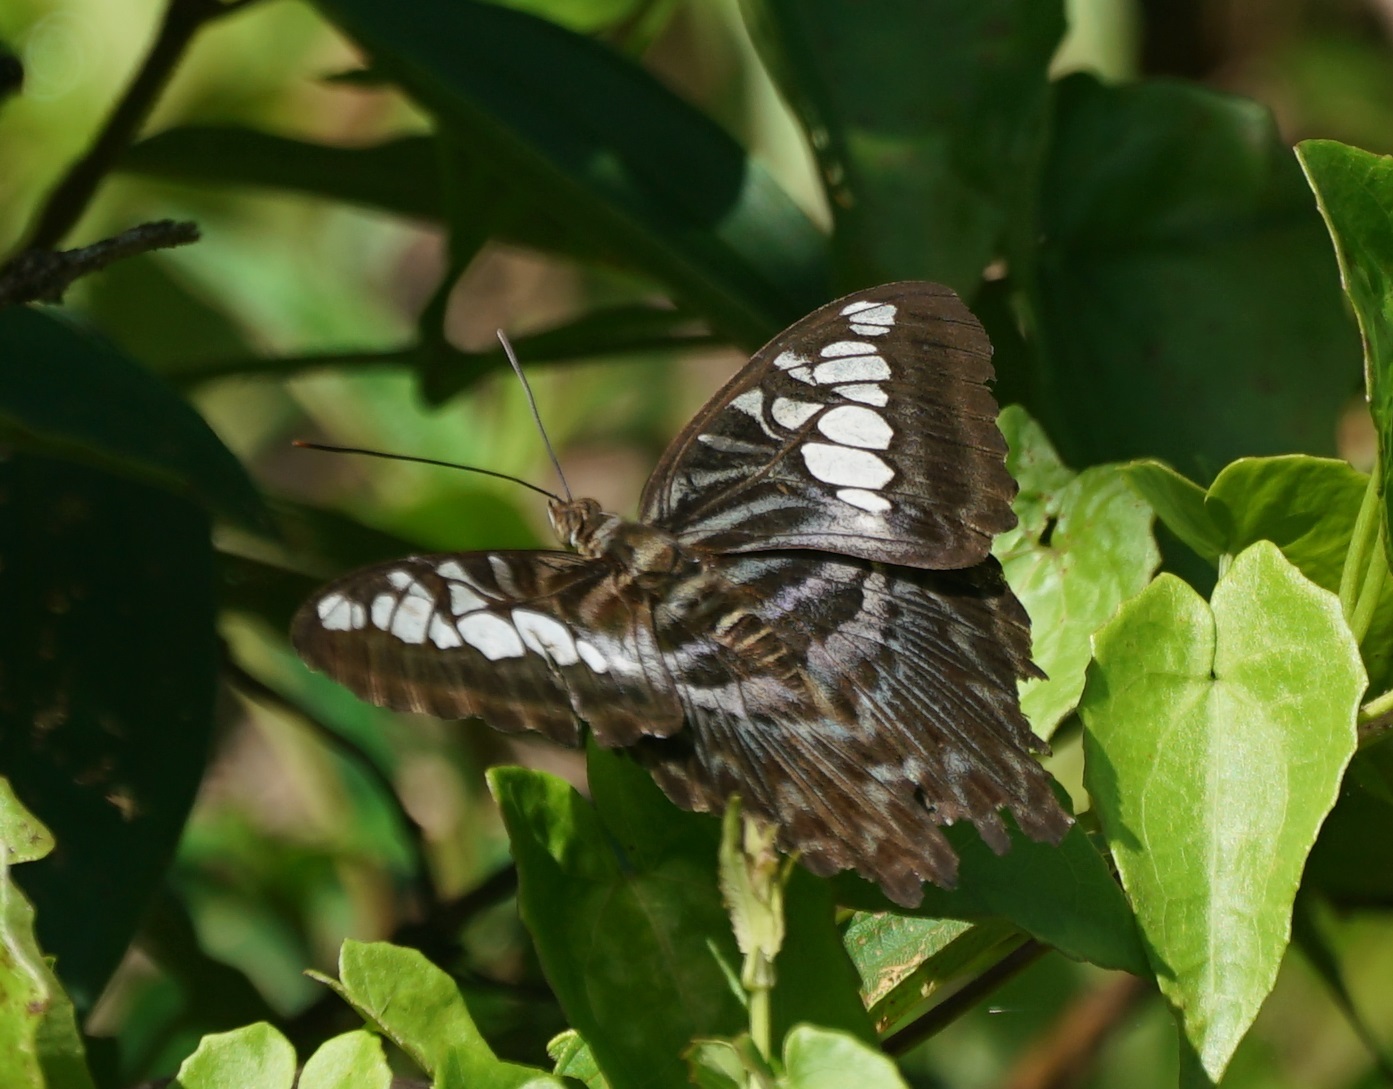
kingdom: Animalia
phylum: Arthropoda
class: Insecta
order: Lepidoptera
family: Nymphalidae
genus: Kallima
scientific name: Kallima sylvia
